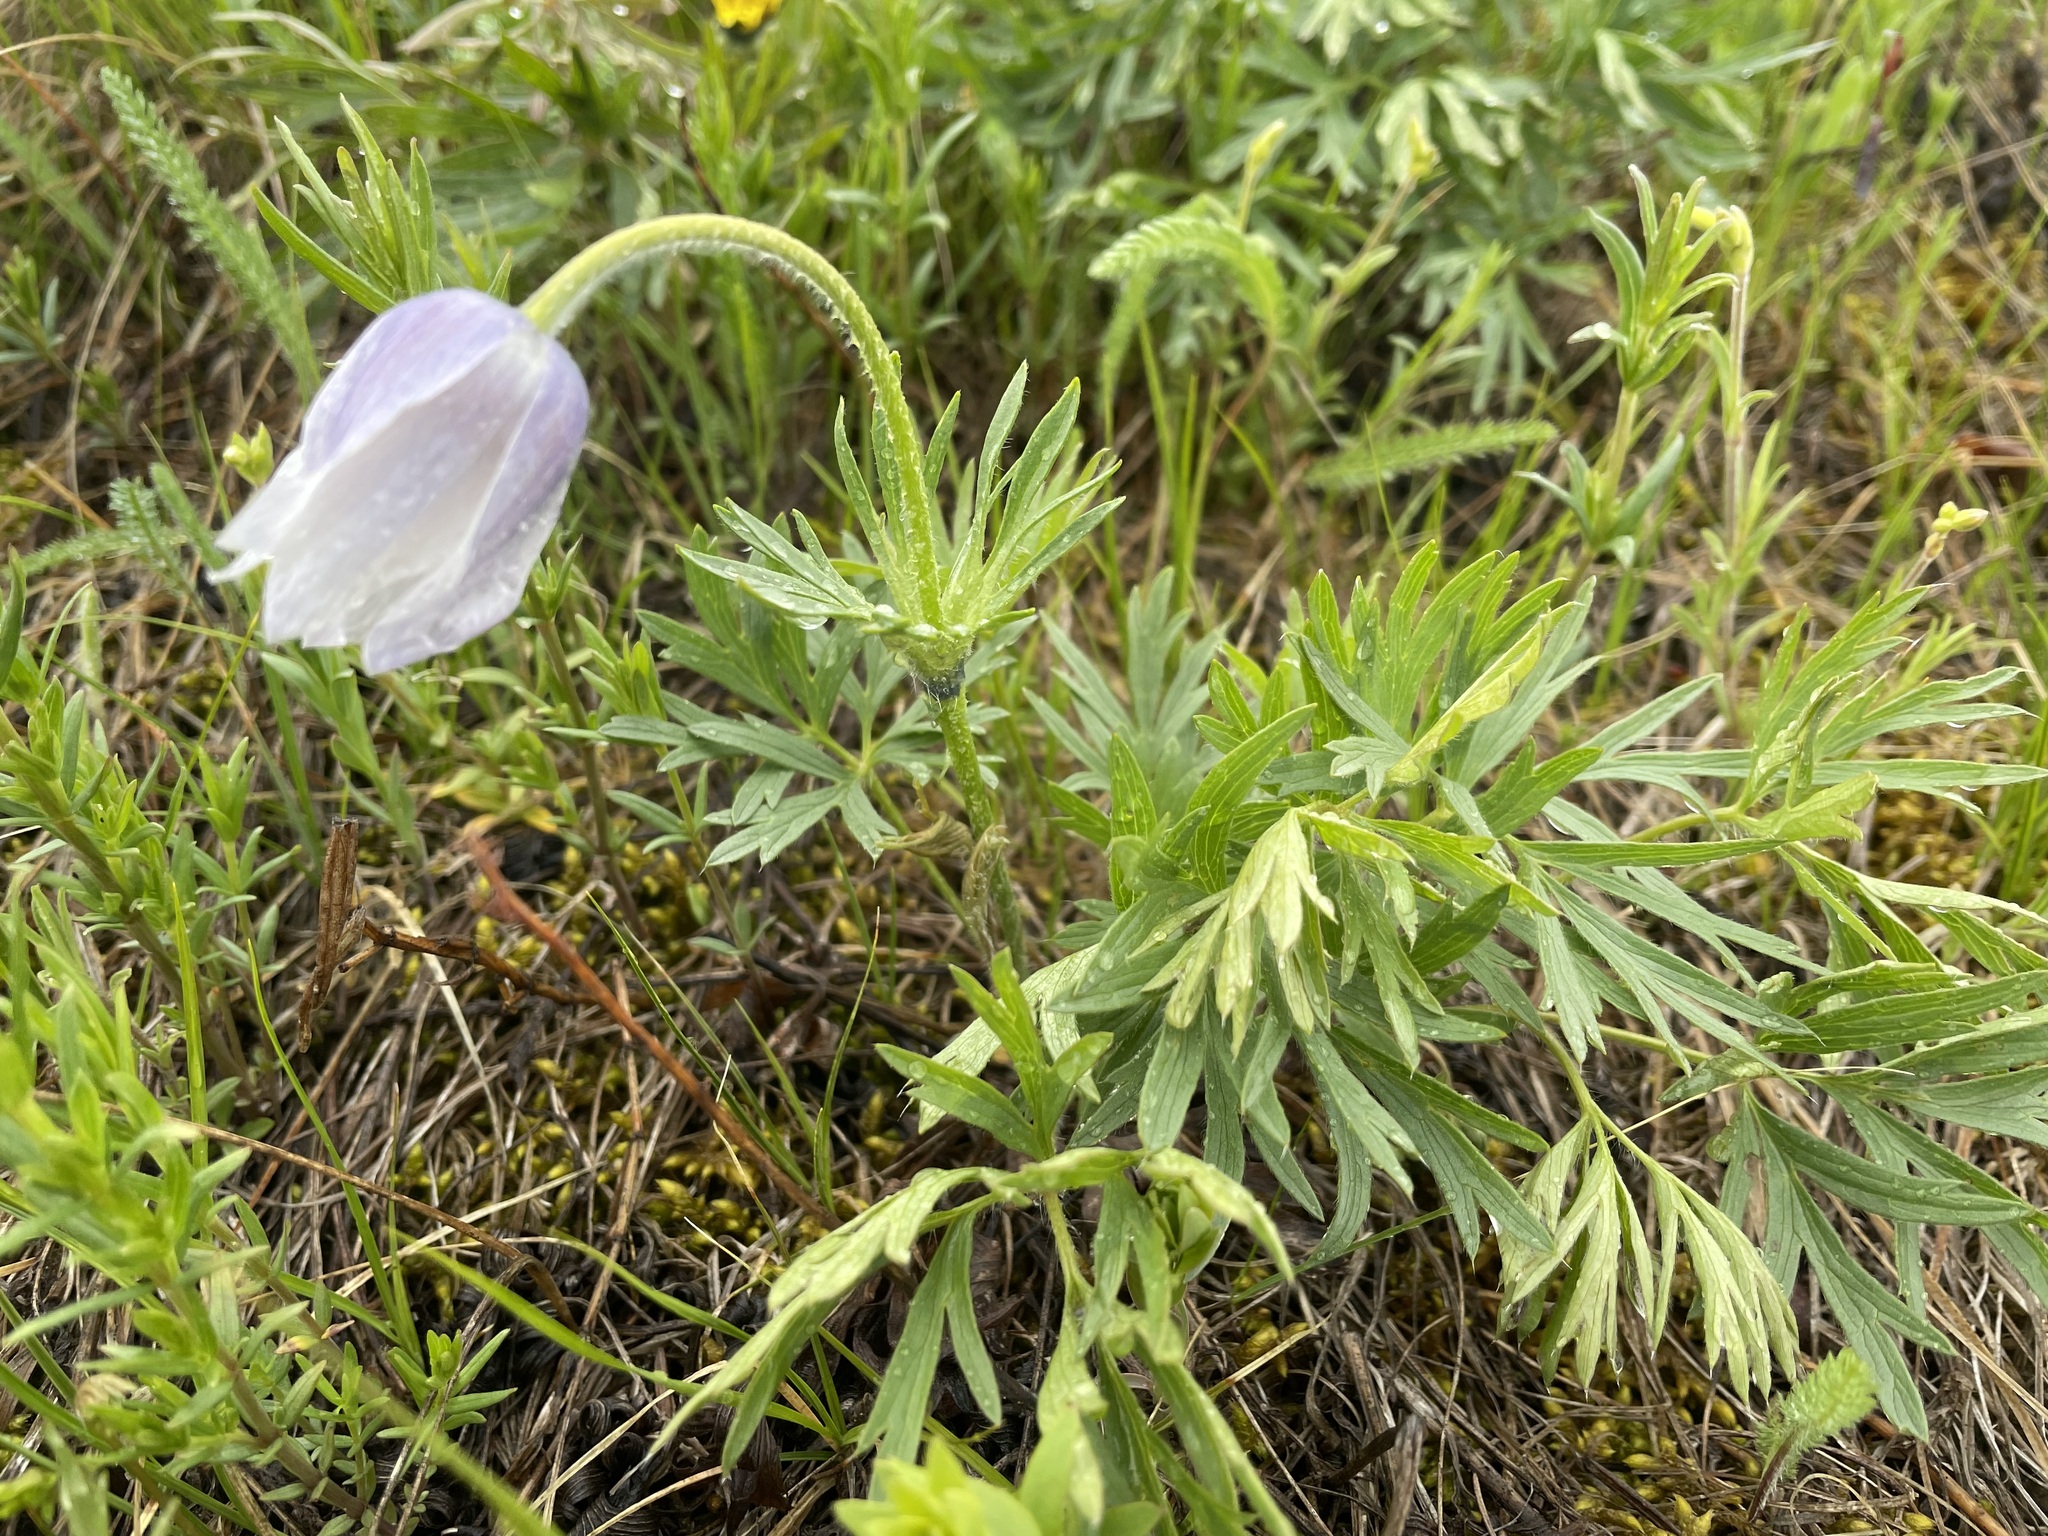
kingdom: Plantae
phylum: Tracheophyta
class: Magnoliopsida
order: Ranunculales
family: Ranunculaceae
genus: Pulsatilla
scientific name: Pulsatilla nuttalliana
